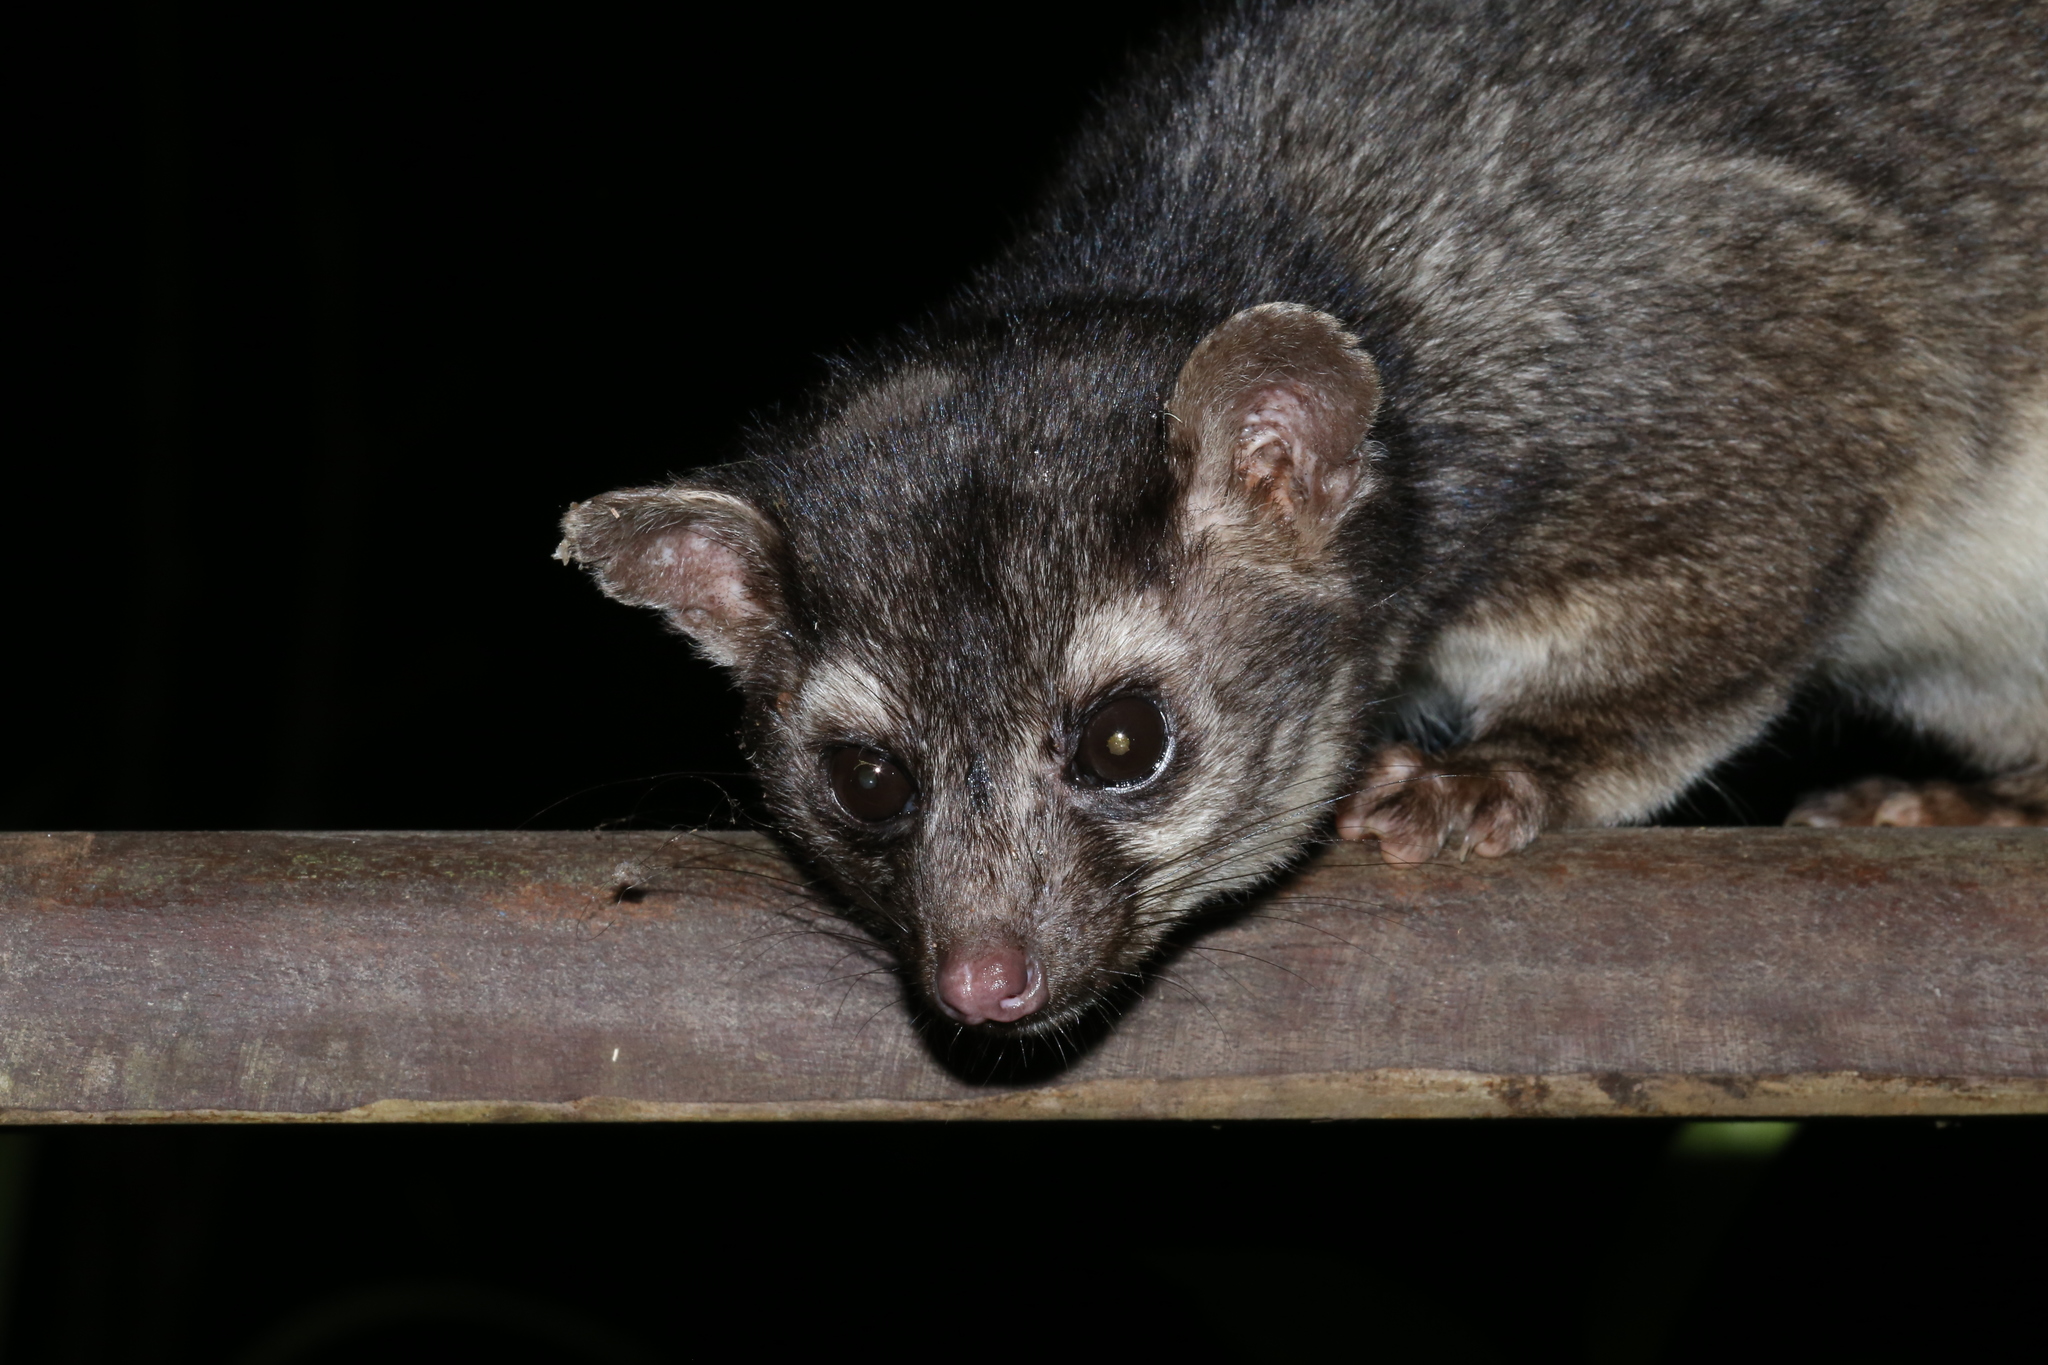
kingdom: Animalia
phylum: Chordata
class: Mammalia
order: Carnivora
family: Procyonidae
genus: Bassariscus
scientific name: Bassariscus sumichrasti
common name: Cacomistle
